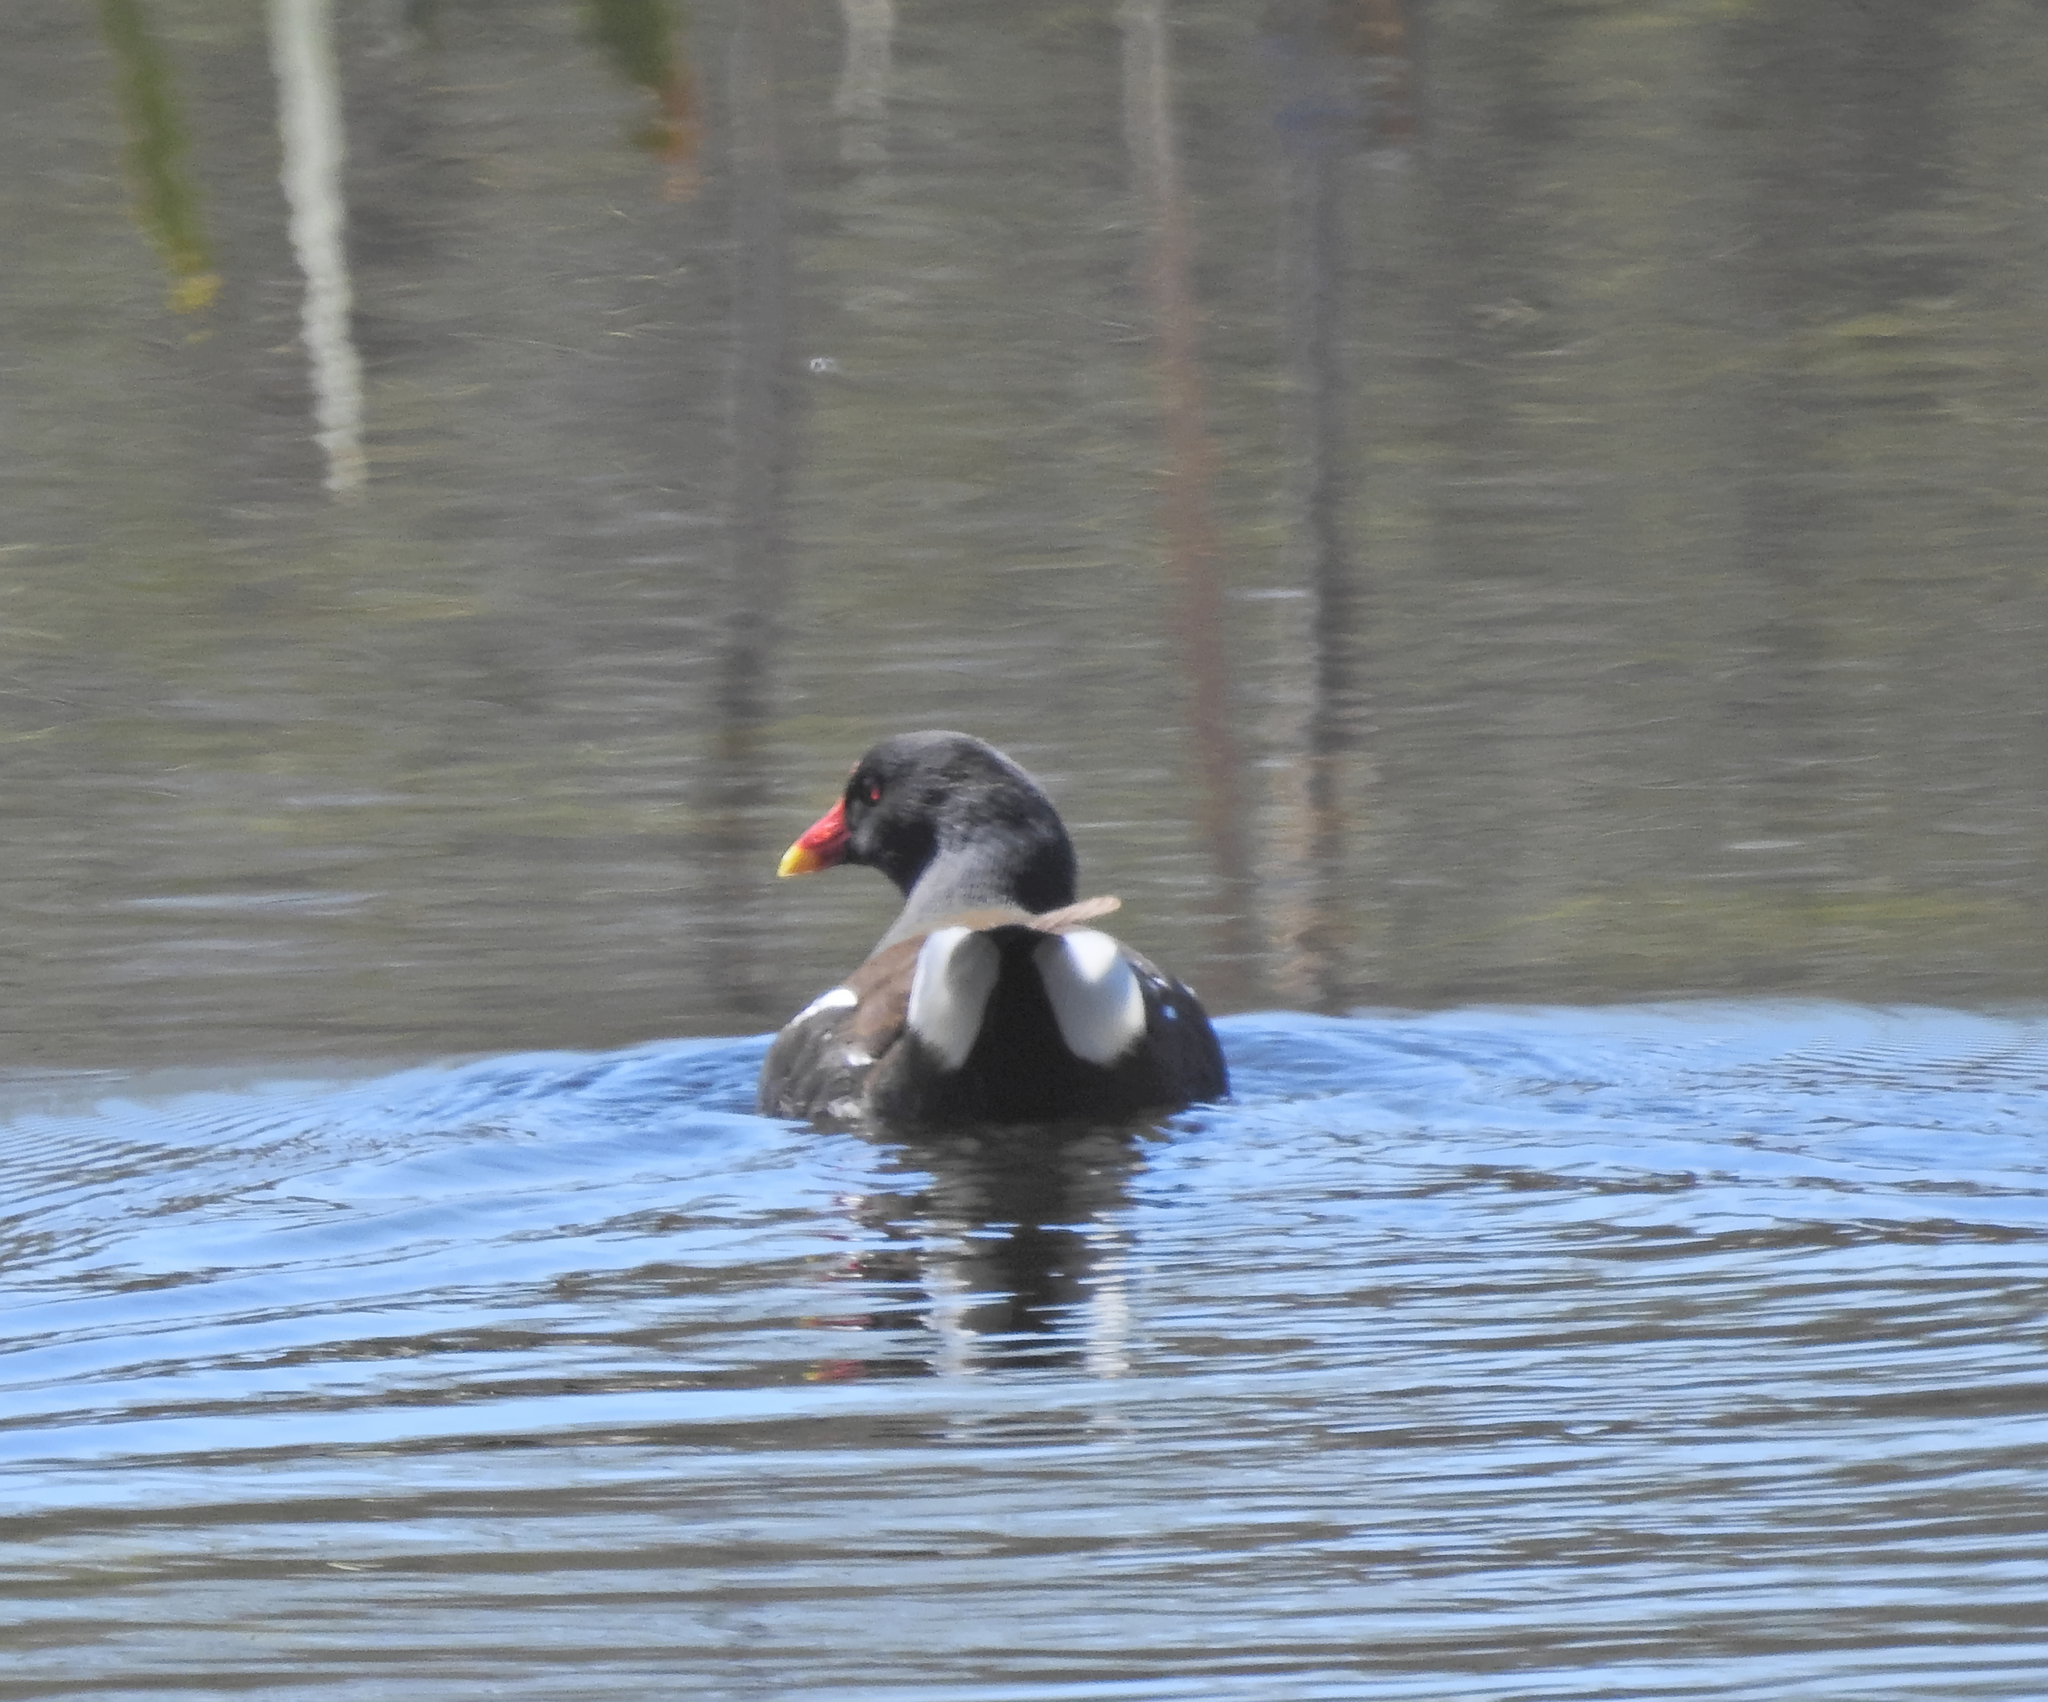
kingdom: Animalia
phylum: Chordata
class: Aves
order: Gruiformes
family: Rallidae
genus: Gallinula
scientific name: Gallinula chloropus
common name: Common moorhen
